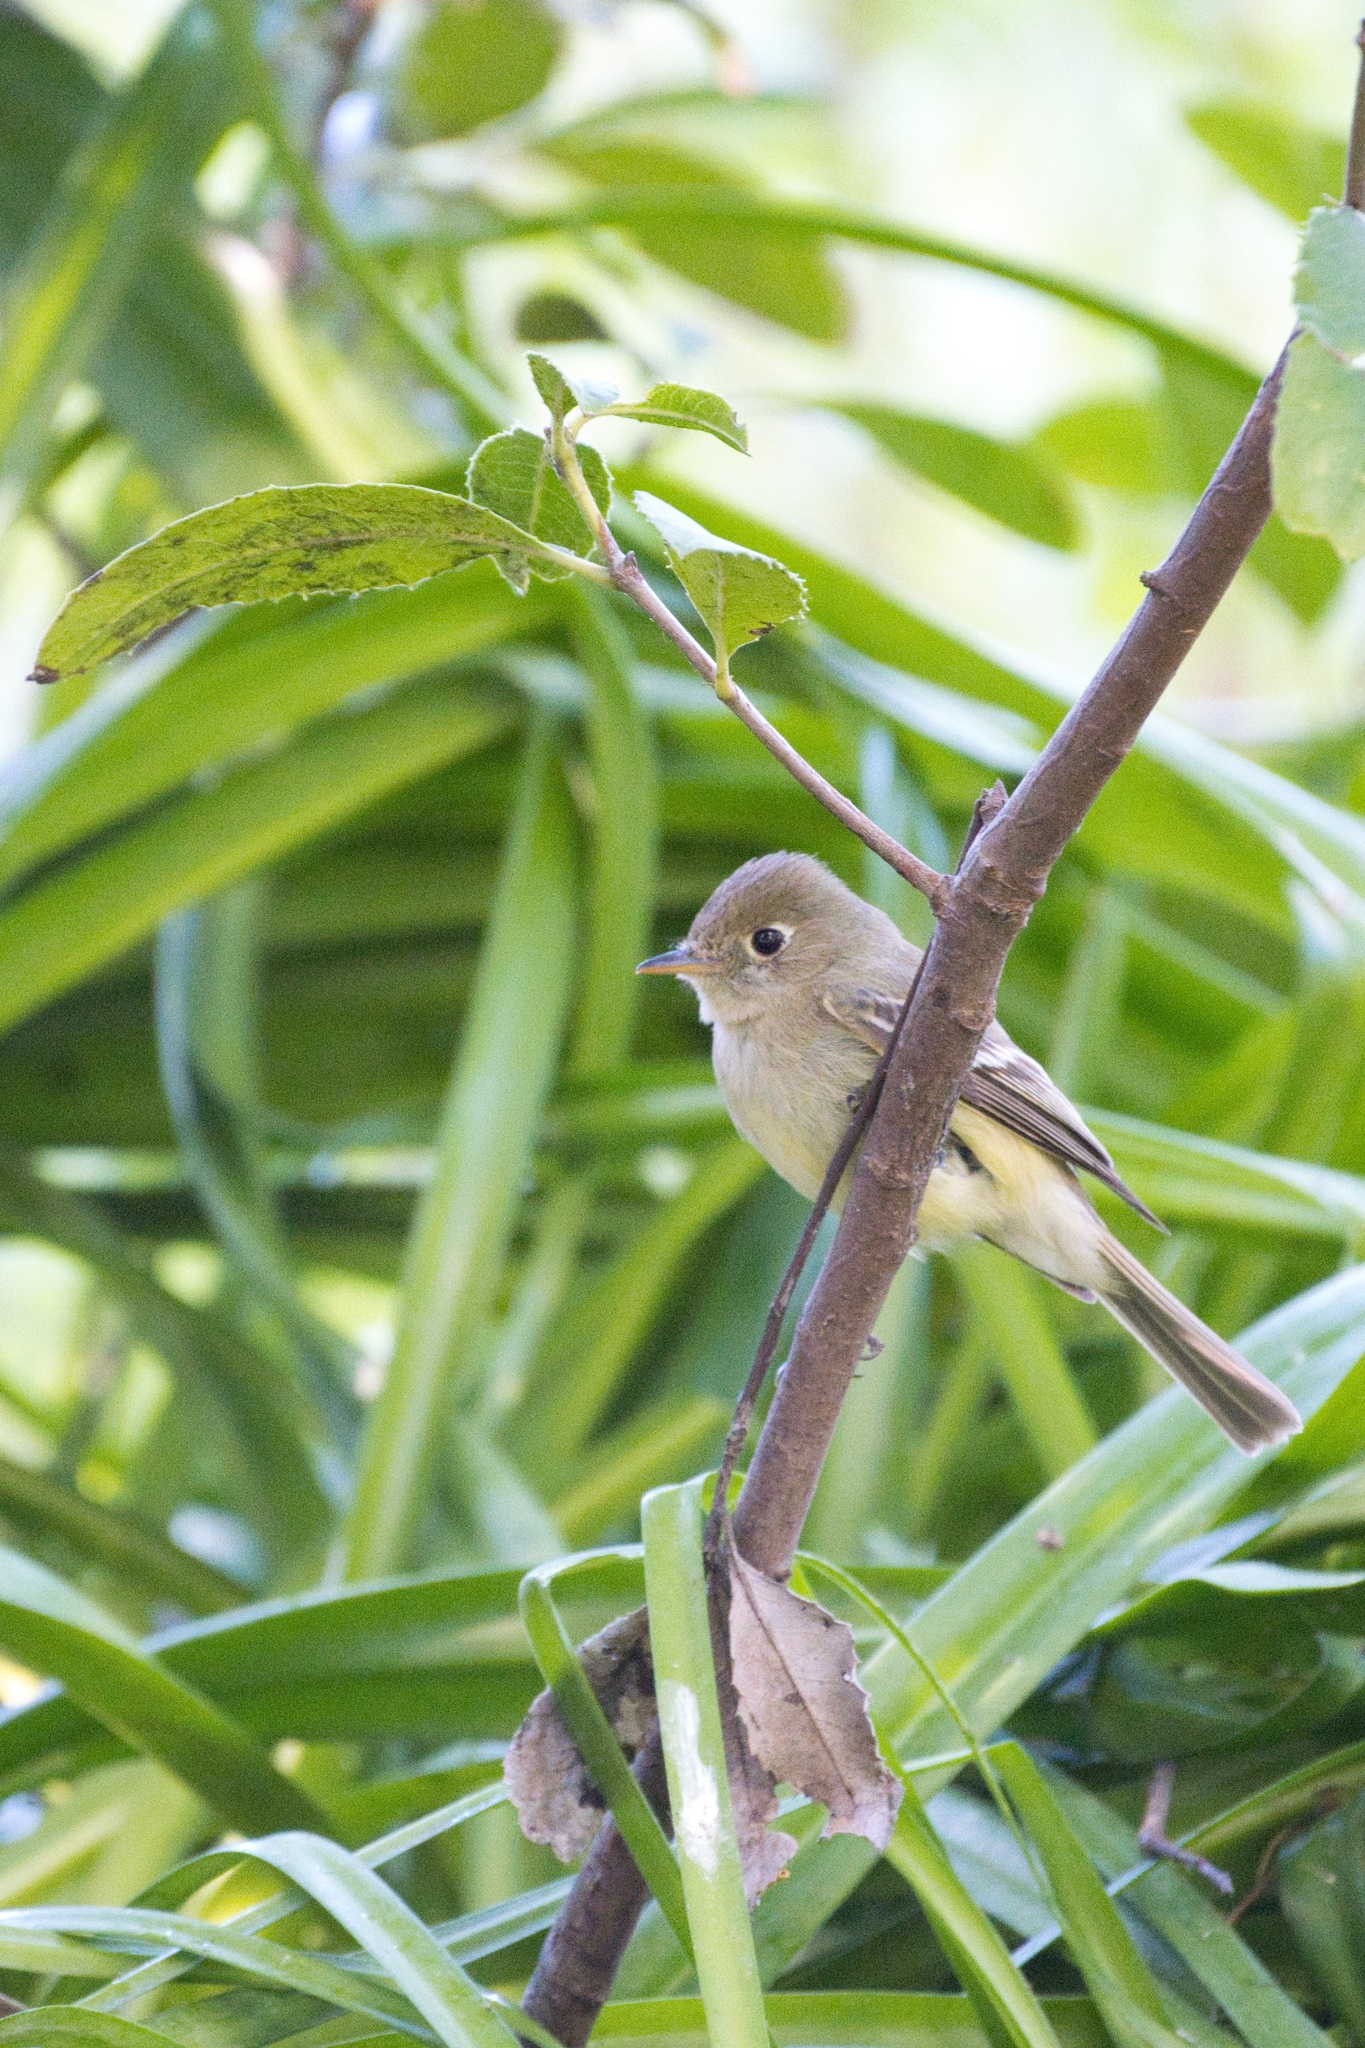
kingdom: Animalia
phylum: Chordata
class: Aves
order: Passeriformes
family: Tyrannidae
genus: Empidonax
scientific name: Empidonax difficilis
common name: Pacific-slope flycatcher
